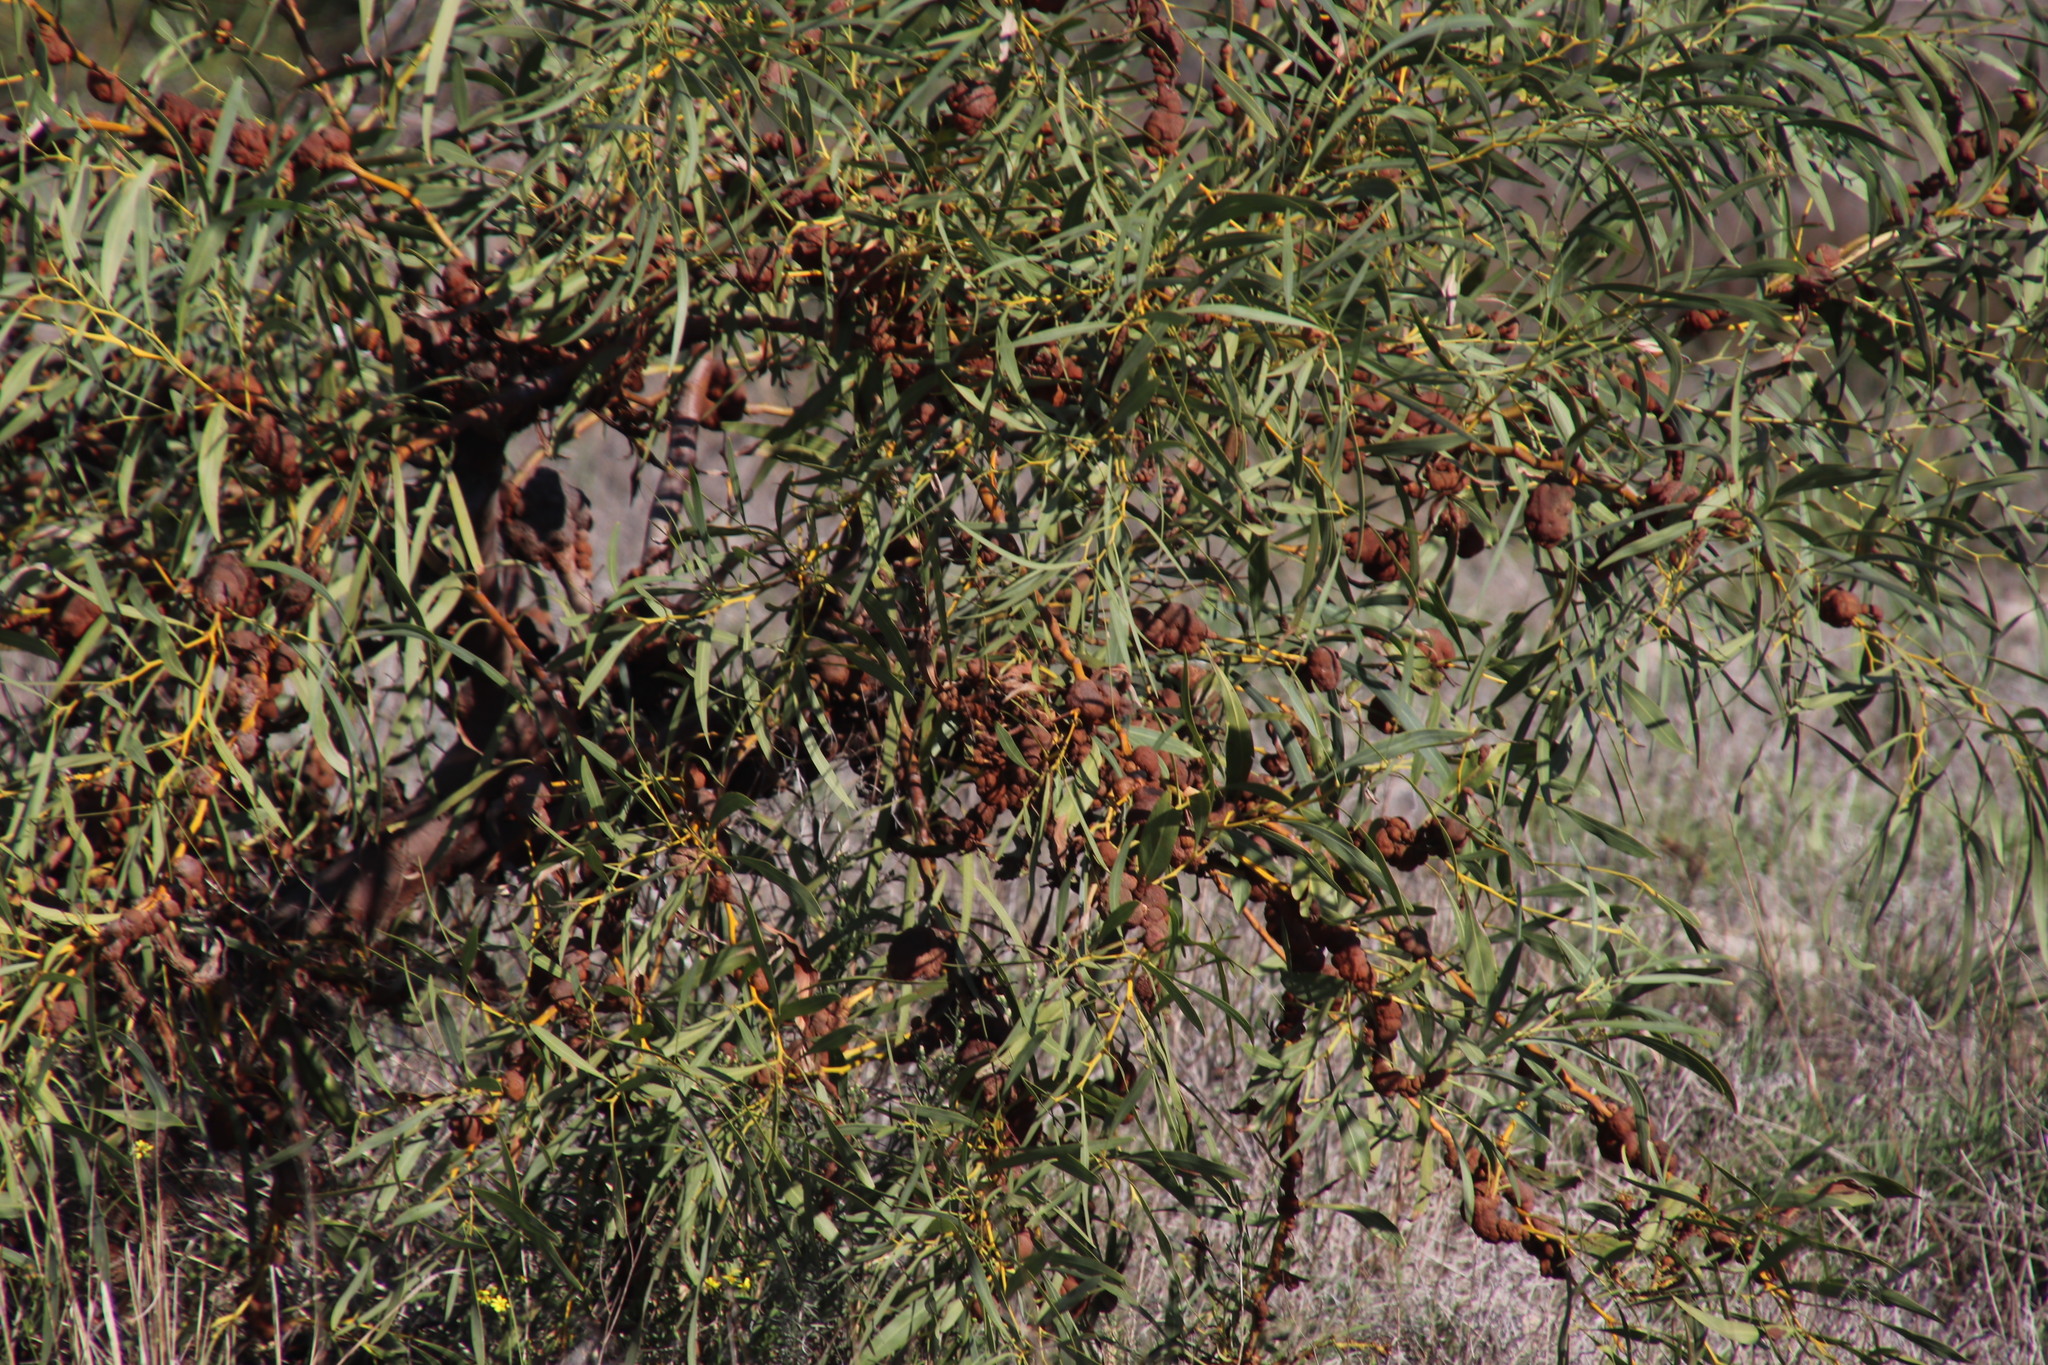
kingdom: Plantae
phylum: Tracheophyta
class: Magnoliopsida
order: Fabales
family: Fabaceae
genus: Acacia
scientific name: Acacia saligna
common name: Orange wattle
